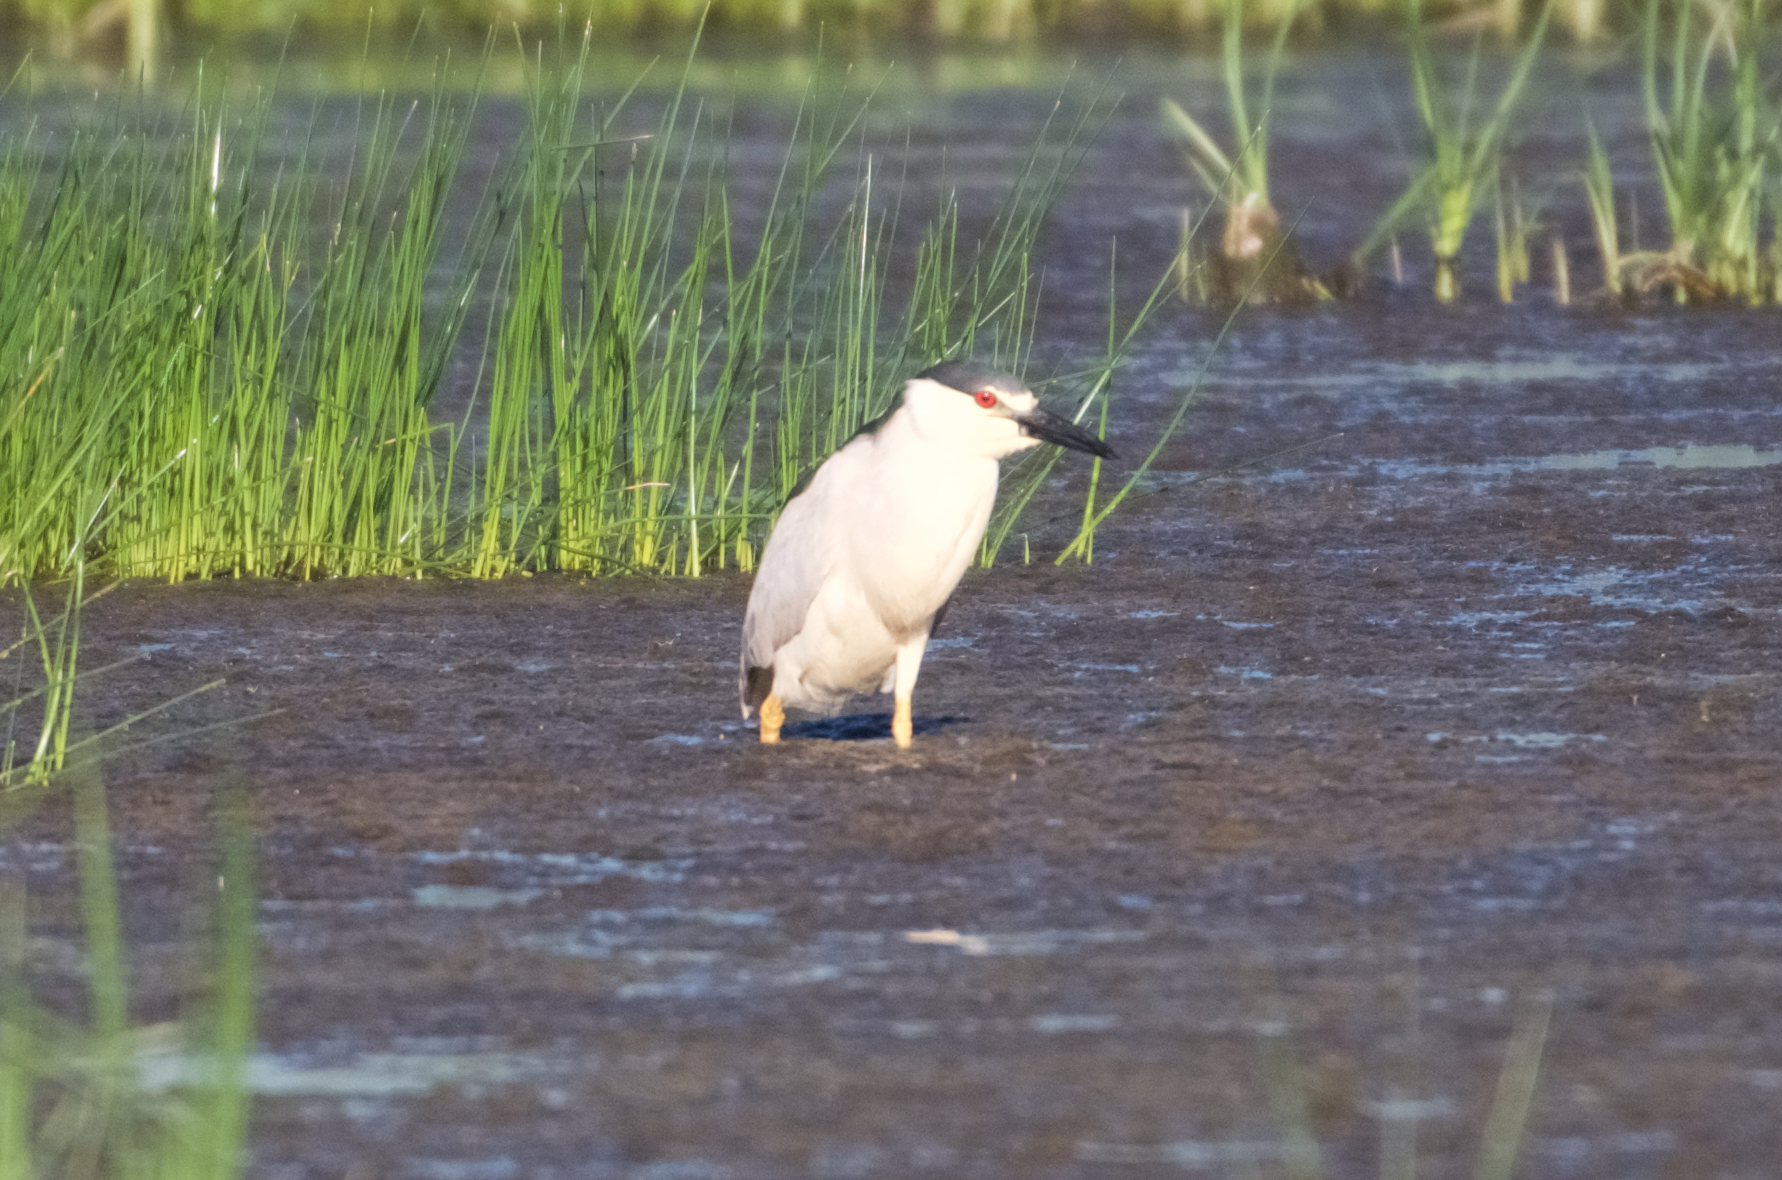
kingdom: Animalia
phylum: Chordata
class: Aves
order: Pelecaniformes
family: Ardeidae
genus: Nycticorax
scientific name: Nycticorax nycticorax
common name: Black-crowned night heron
